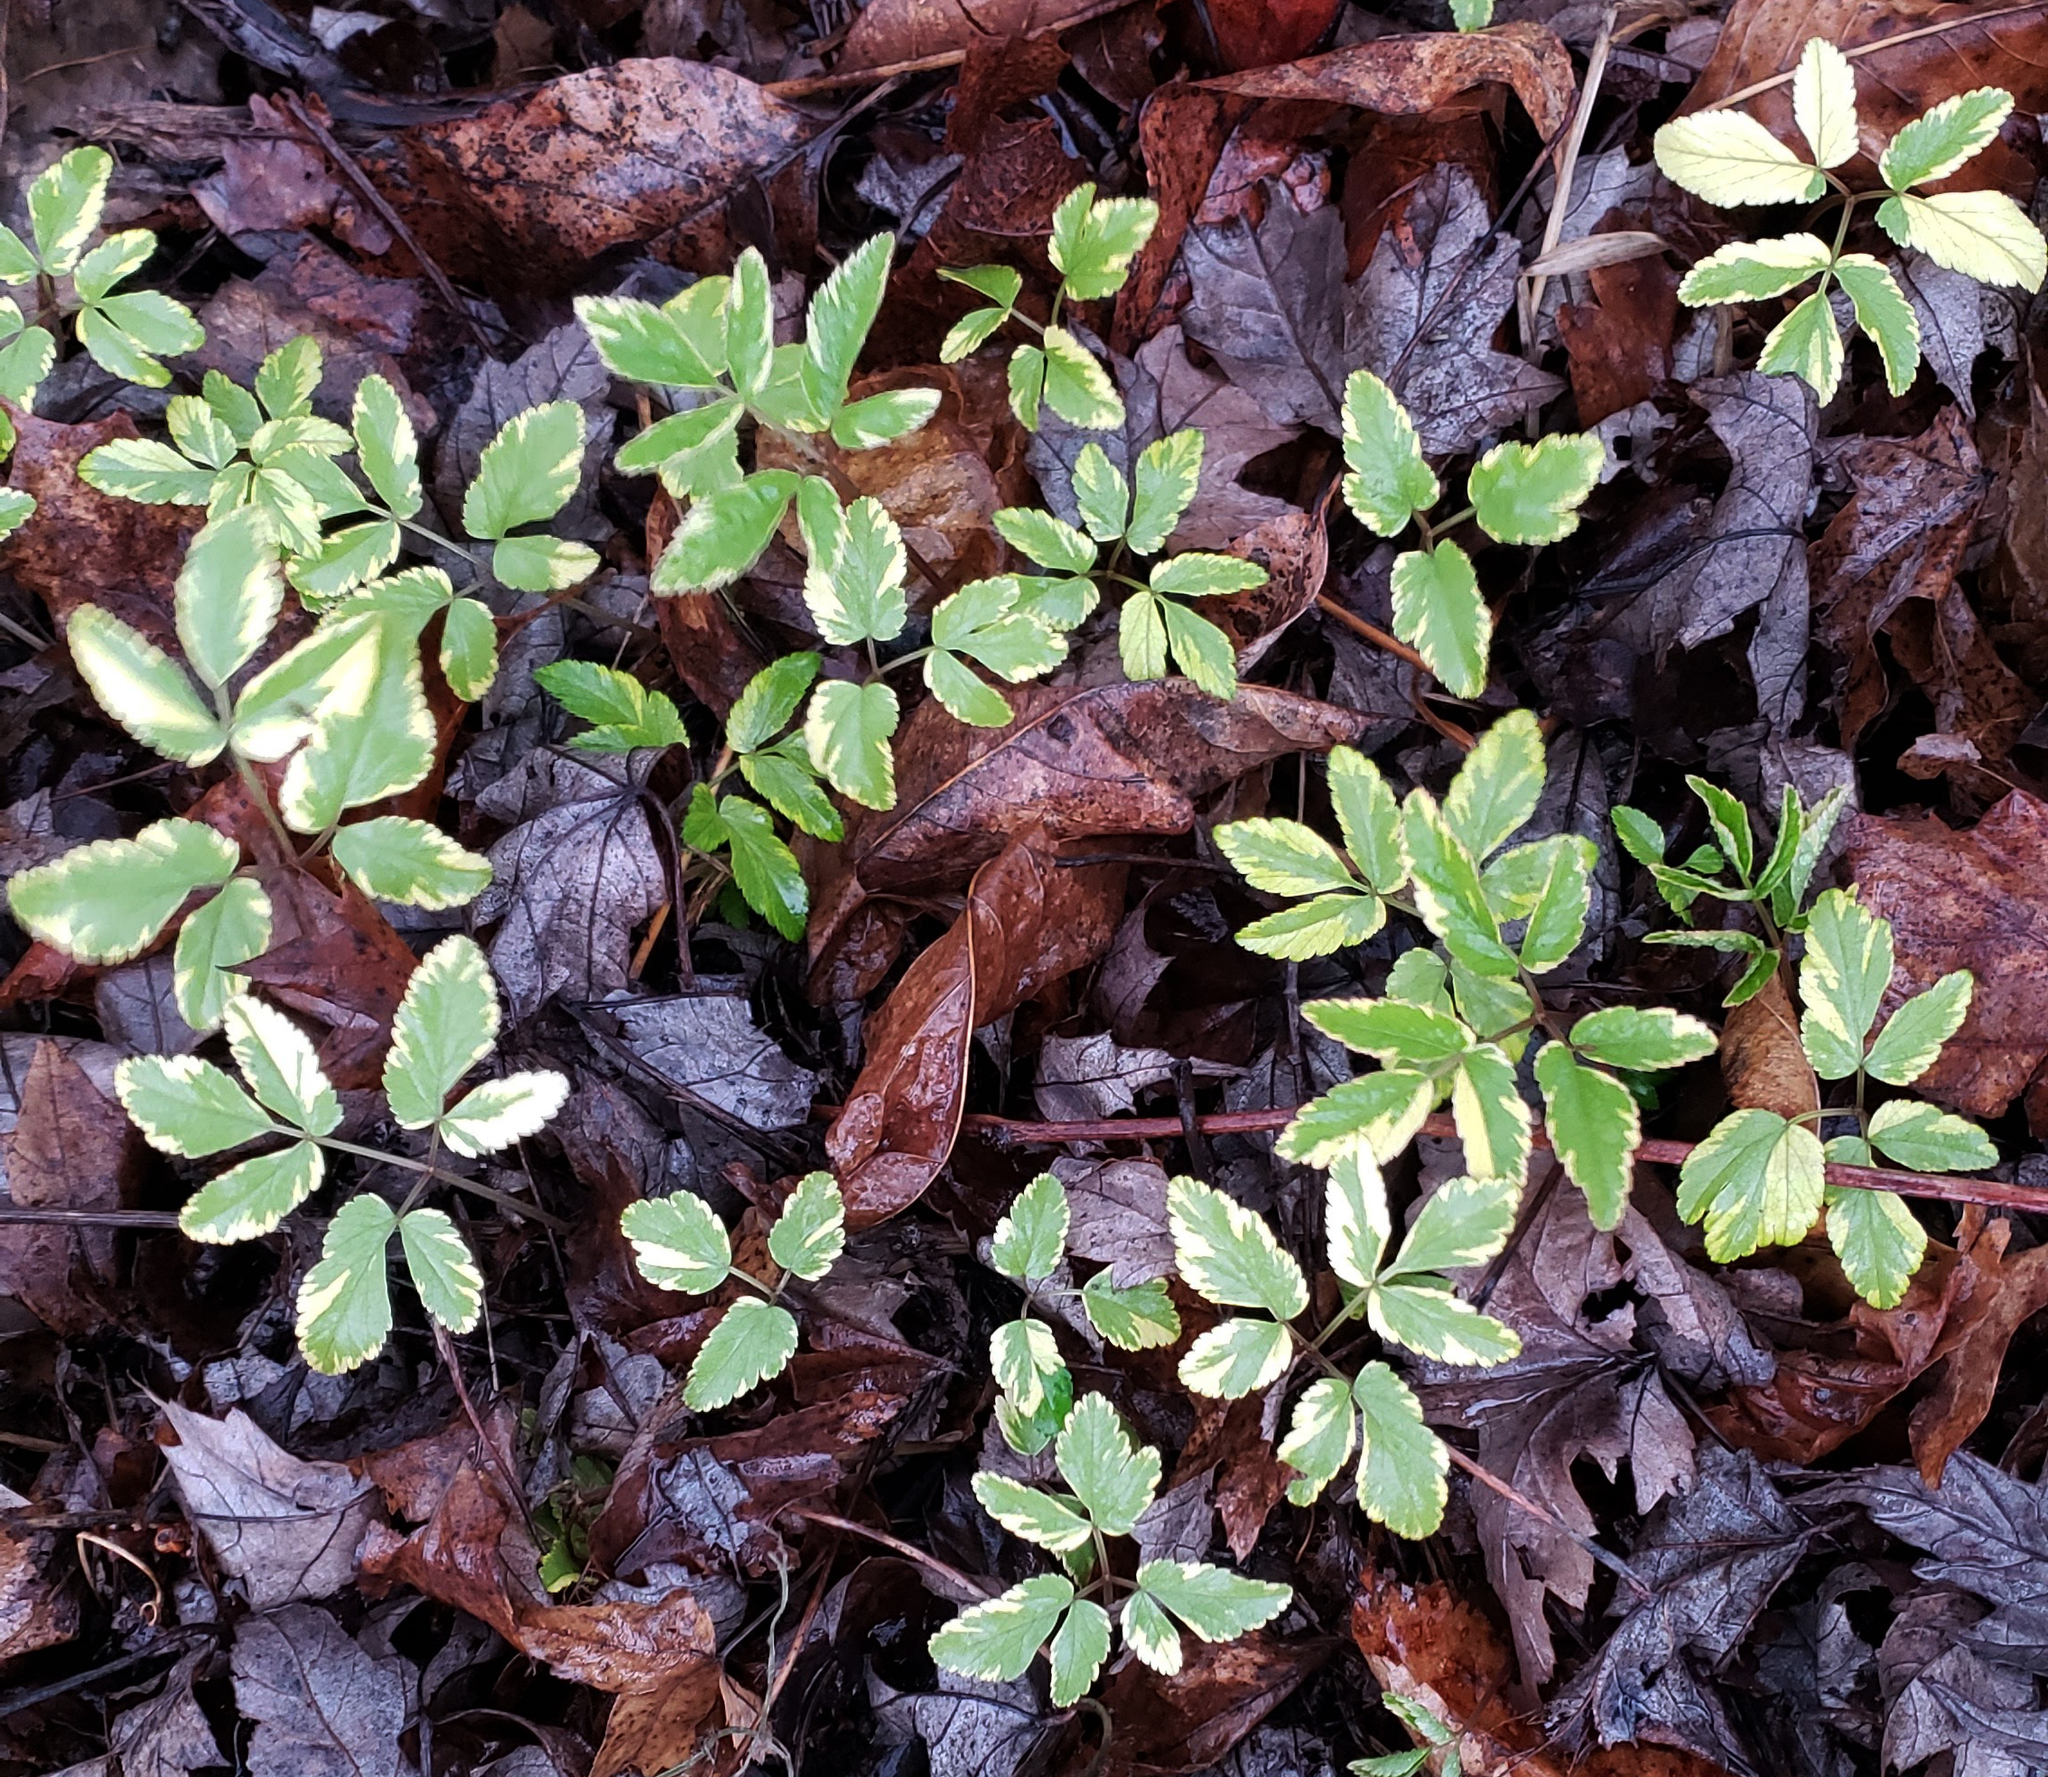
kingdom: Plantae
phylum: Tracheophyta
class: Magnoliopsida
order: Apiales
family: Apiaceae
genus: Aegopodium
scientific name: Aegopodium podagraria
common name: Ground-elder
